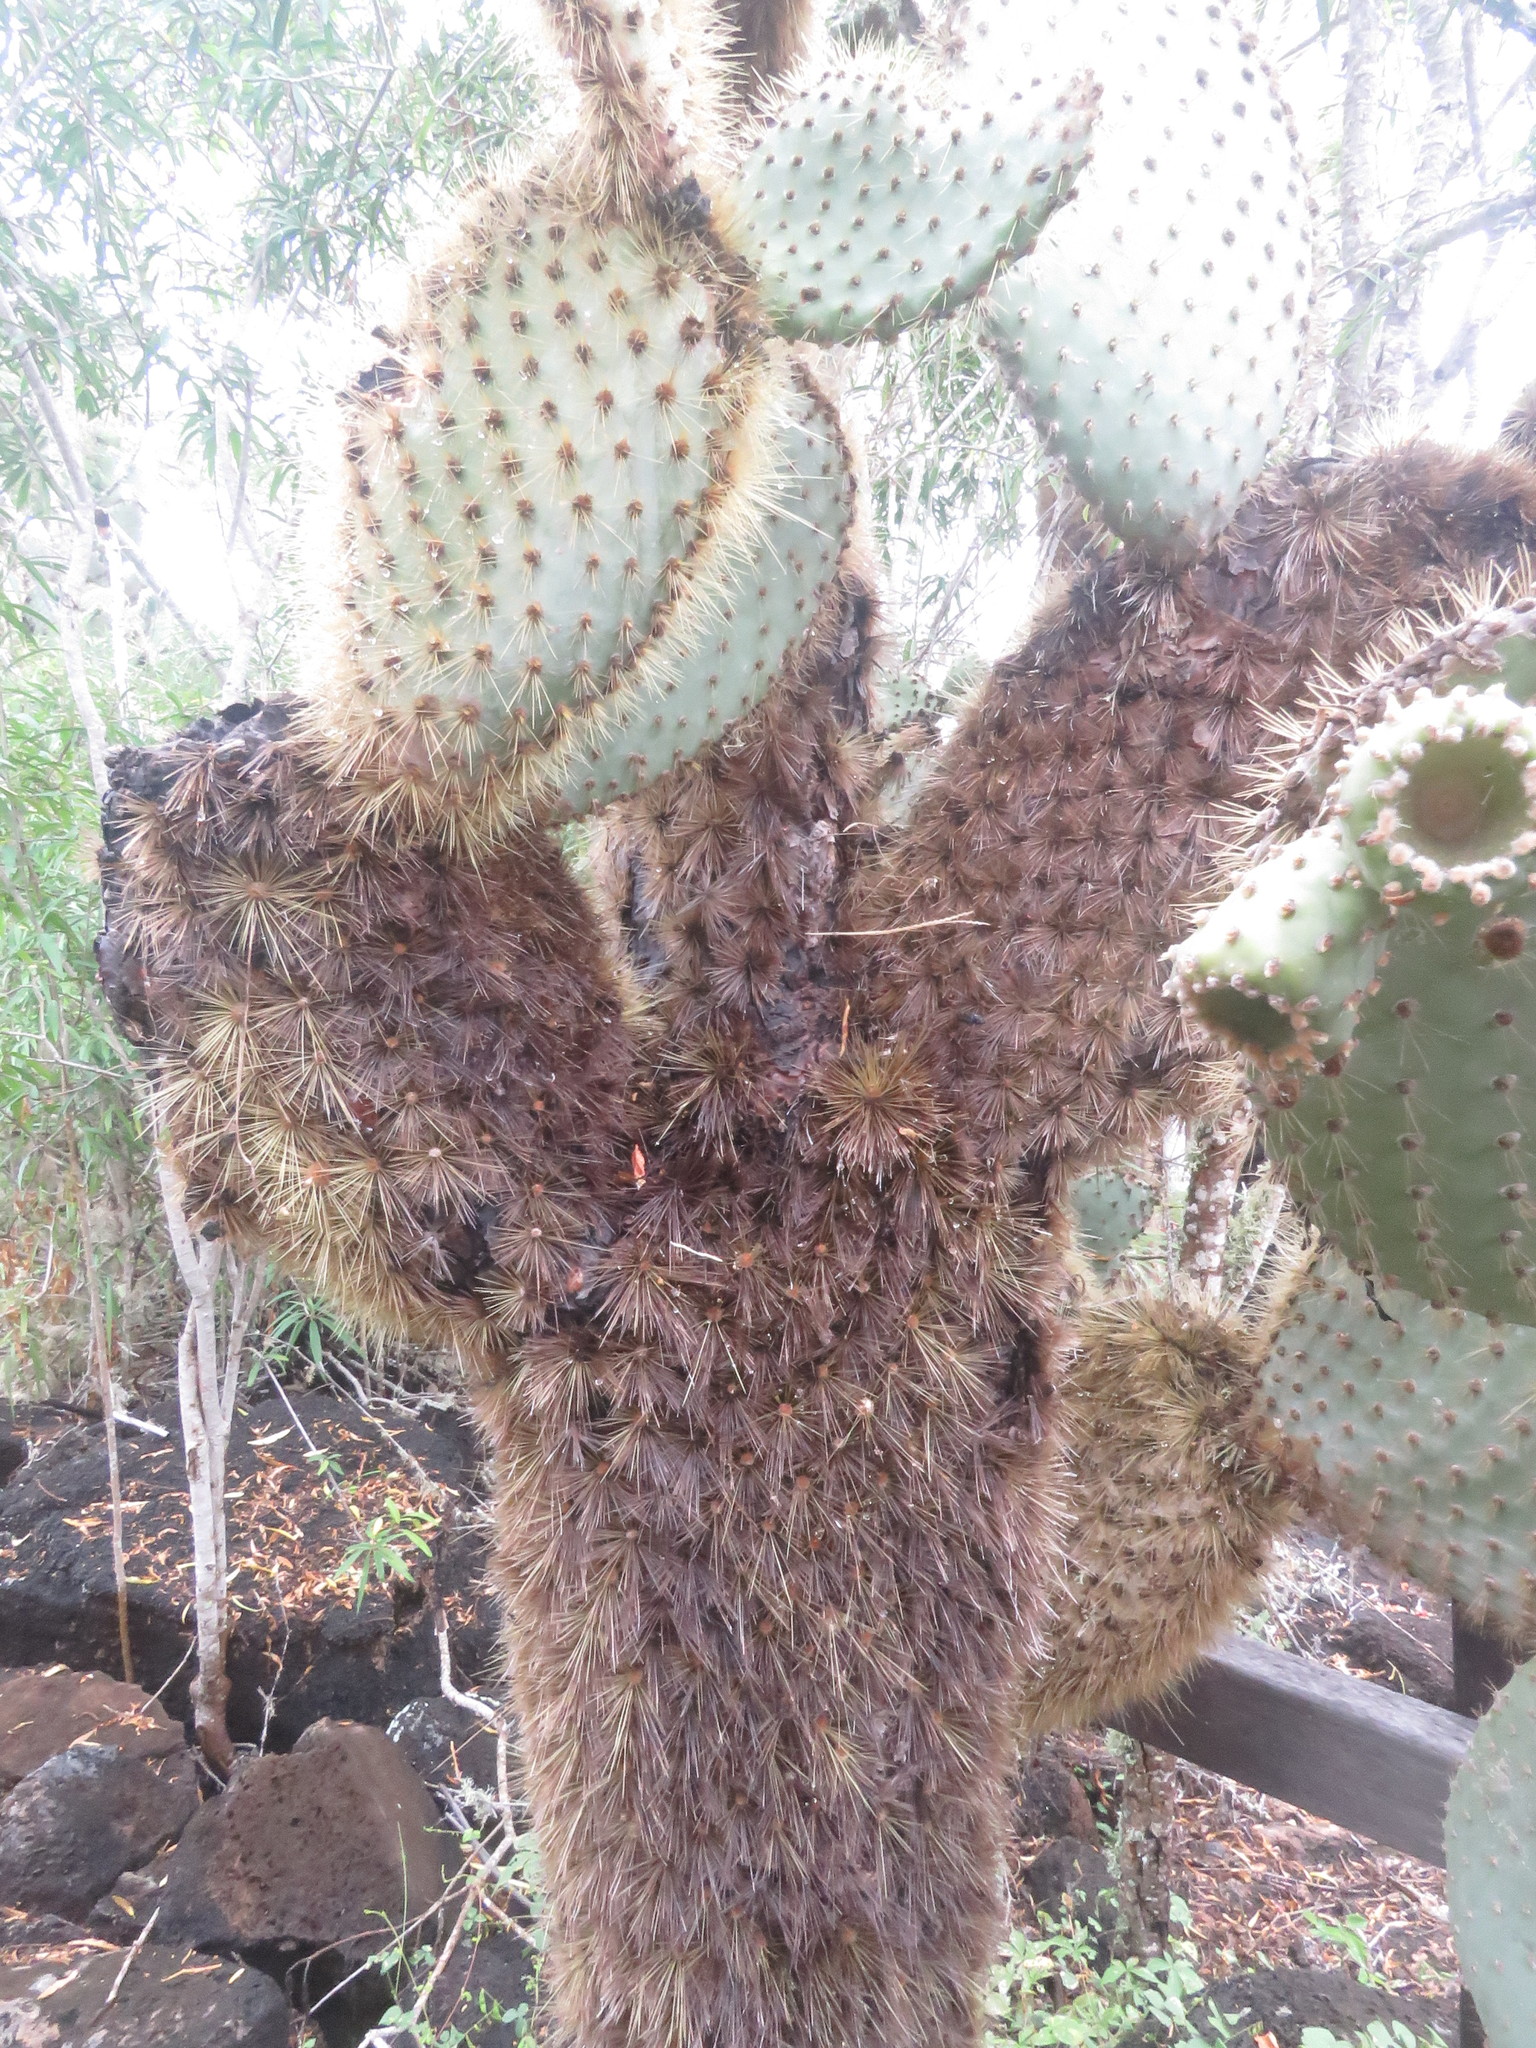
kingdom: Plantae
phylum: Tracheophyta
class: Magnoliopsida
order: Caryophyllales
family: Cactaceae
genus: Opuntia
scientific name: Opuntia galapageia
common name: Galápagos prickly pear
